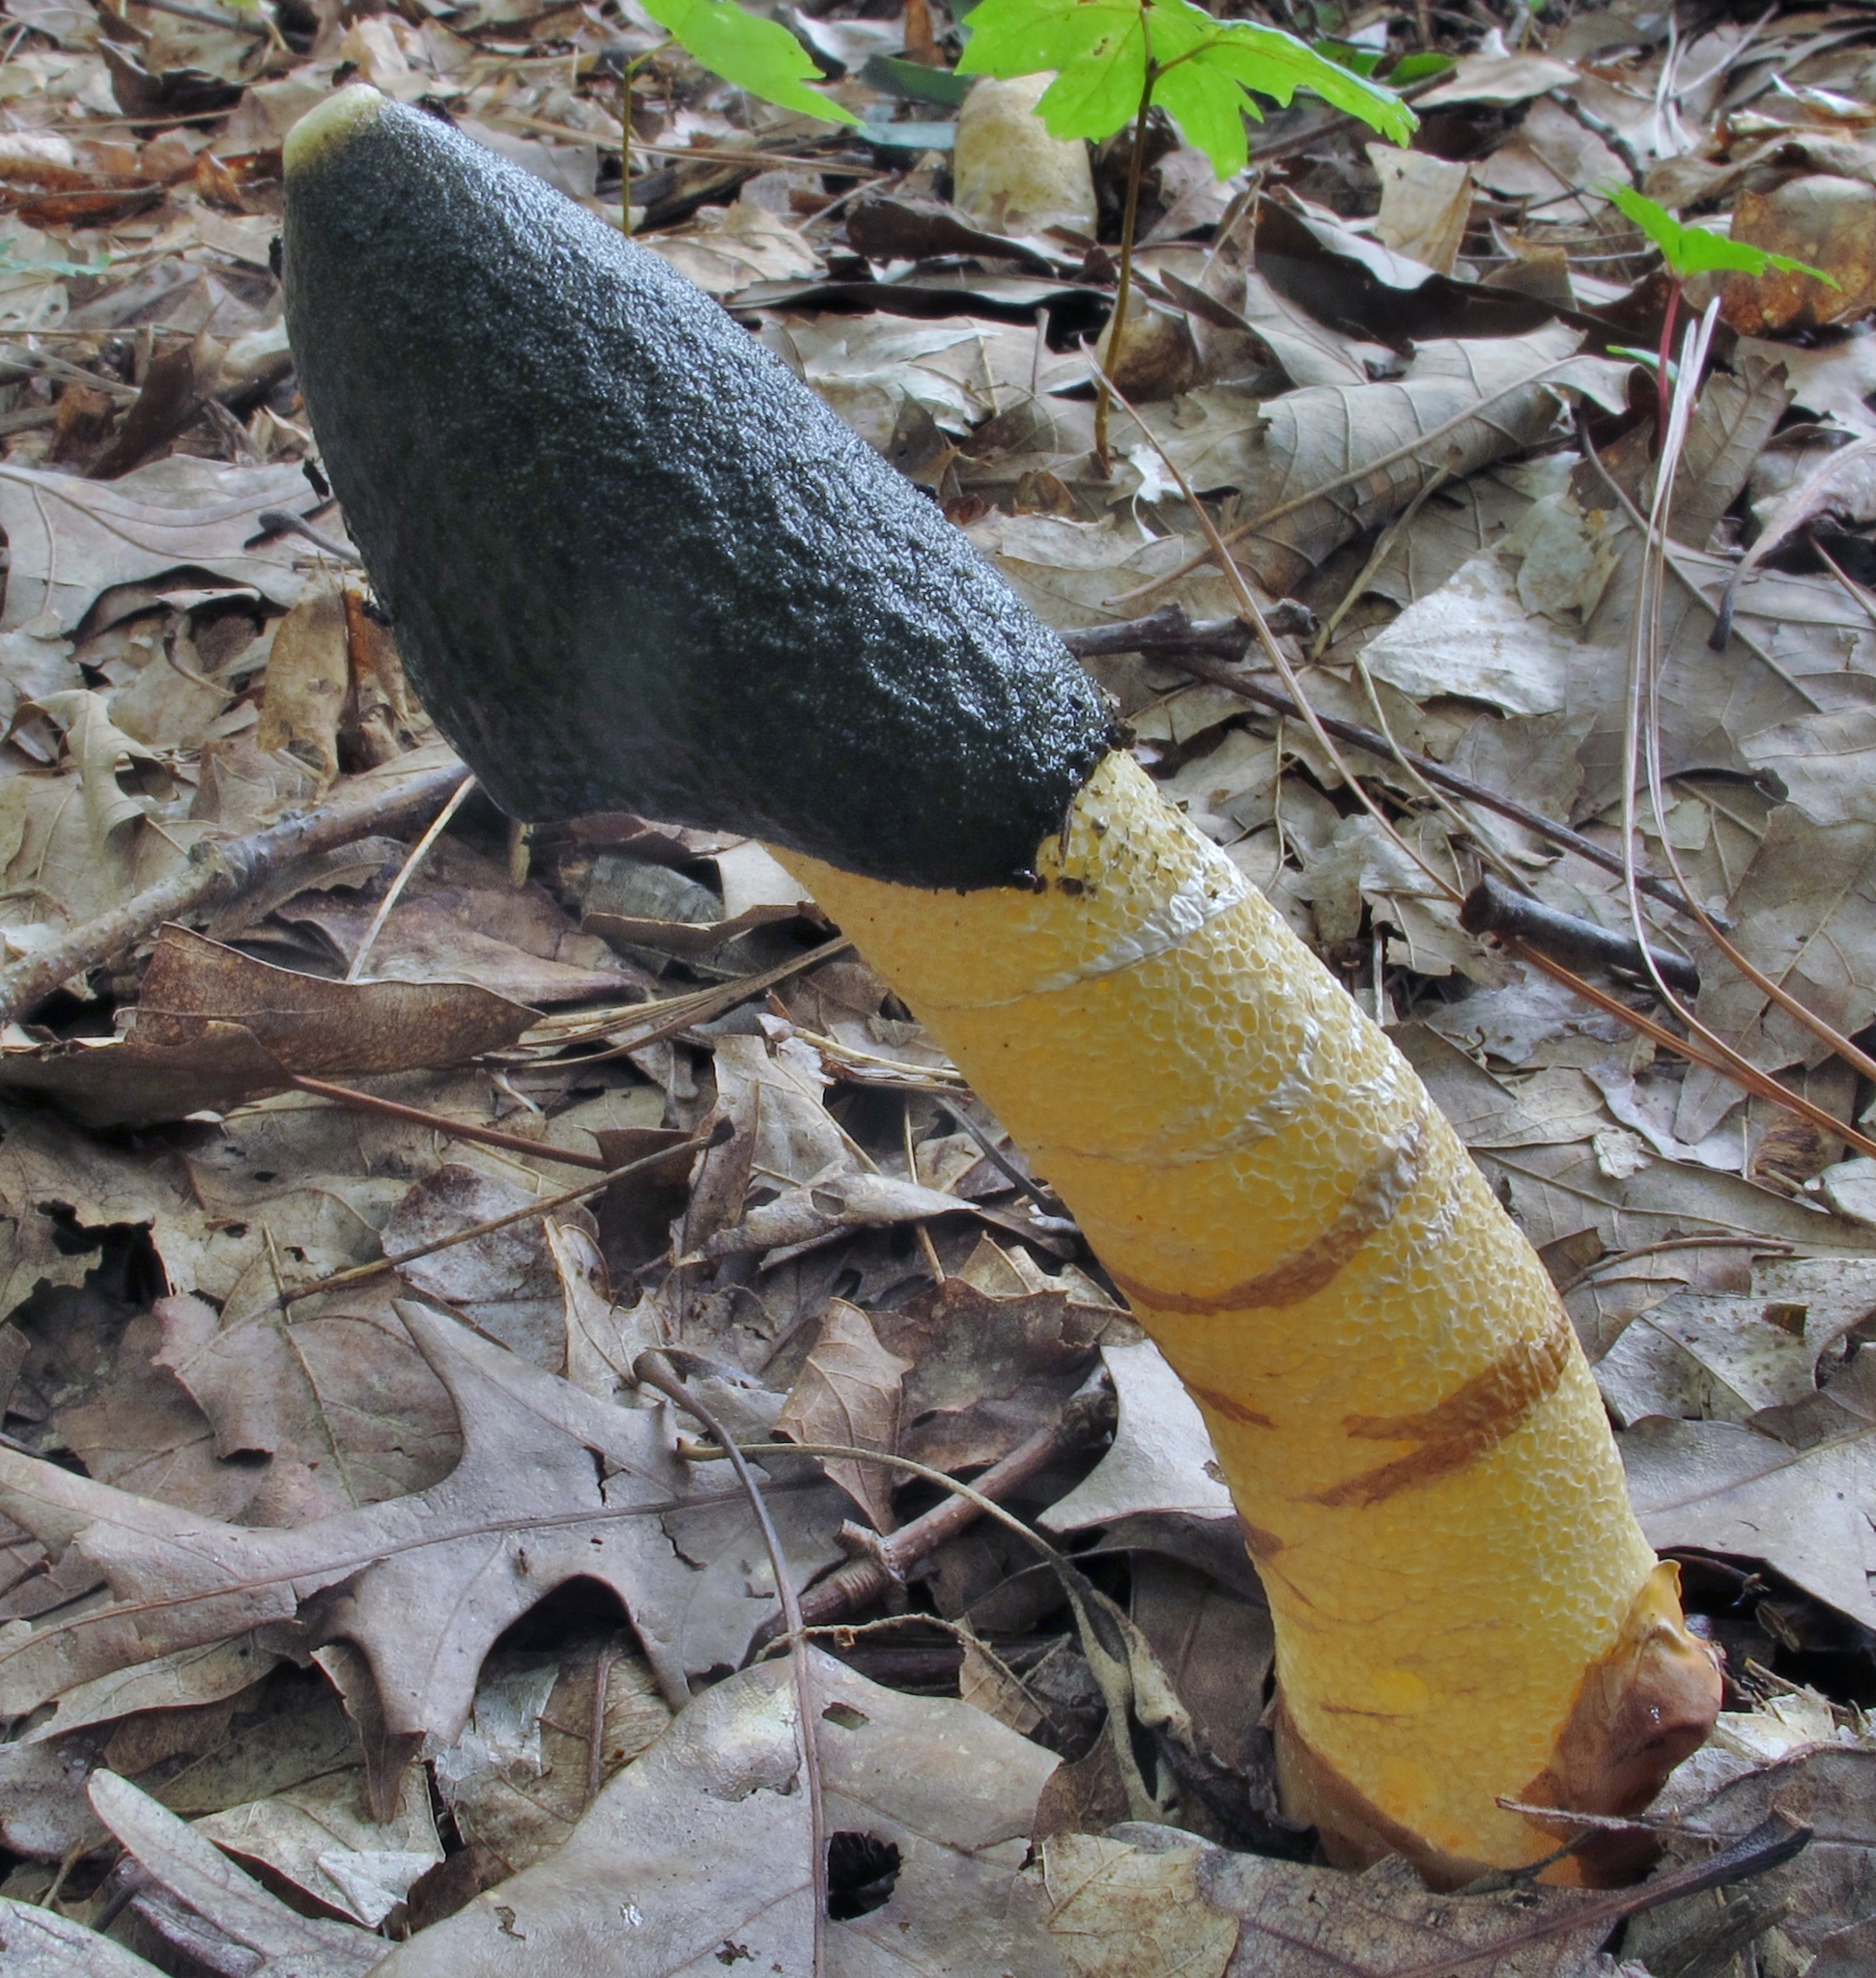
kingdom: Fungi
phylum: Basidiomycota
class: Agaricomycetes
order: Phallales
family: Phallaceae
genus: Phallus
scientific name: Phallus ravenelii
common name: Ravenel's stinkhorn
